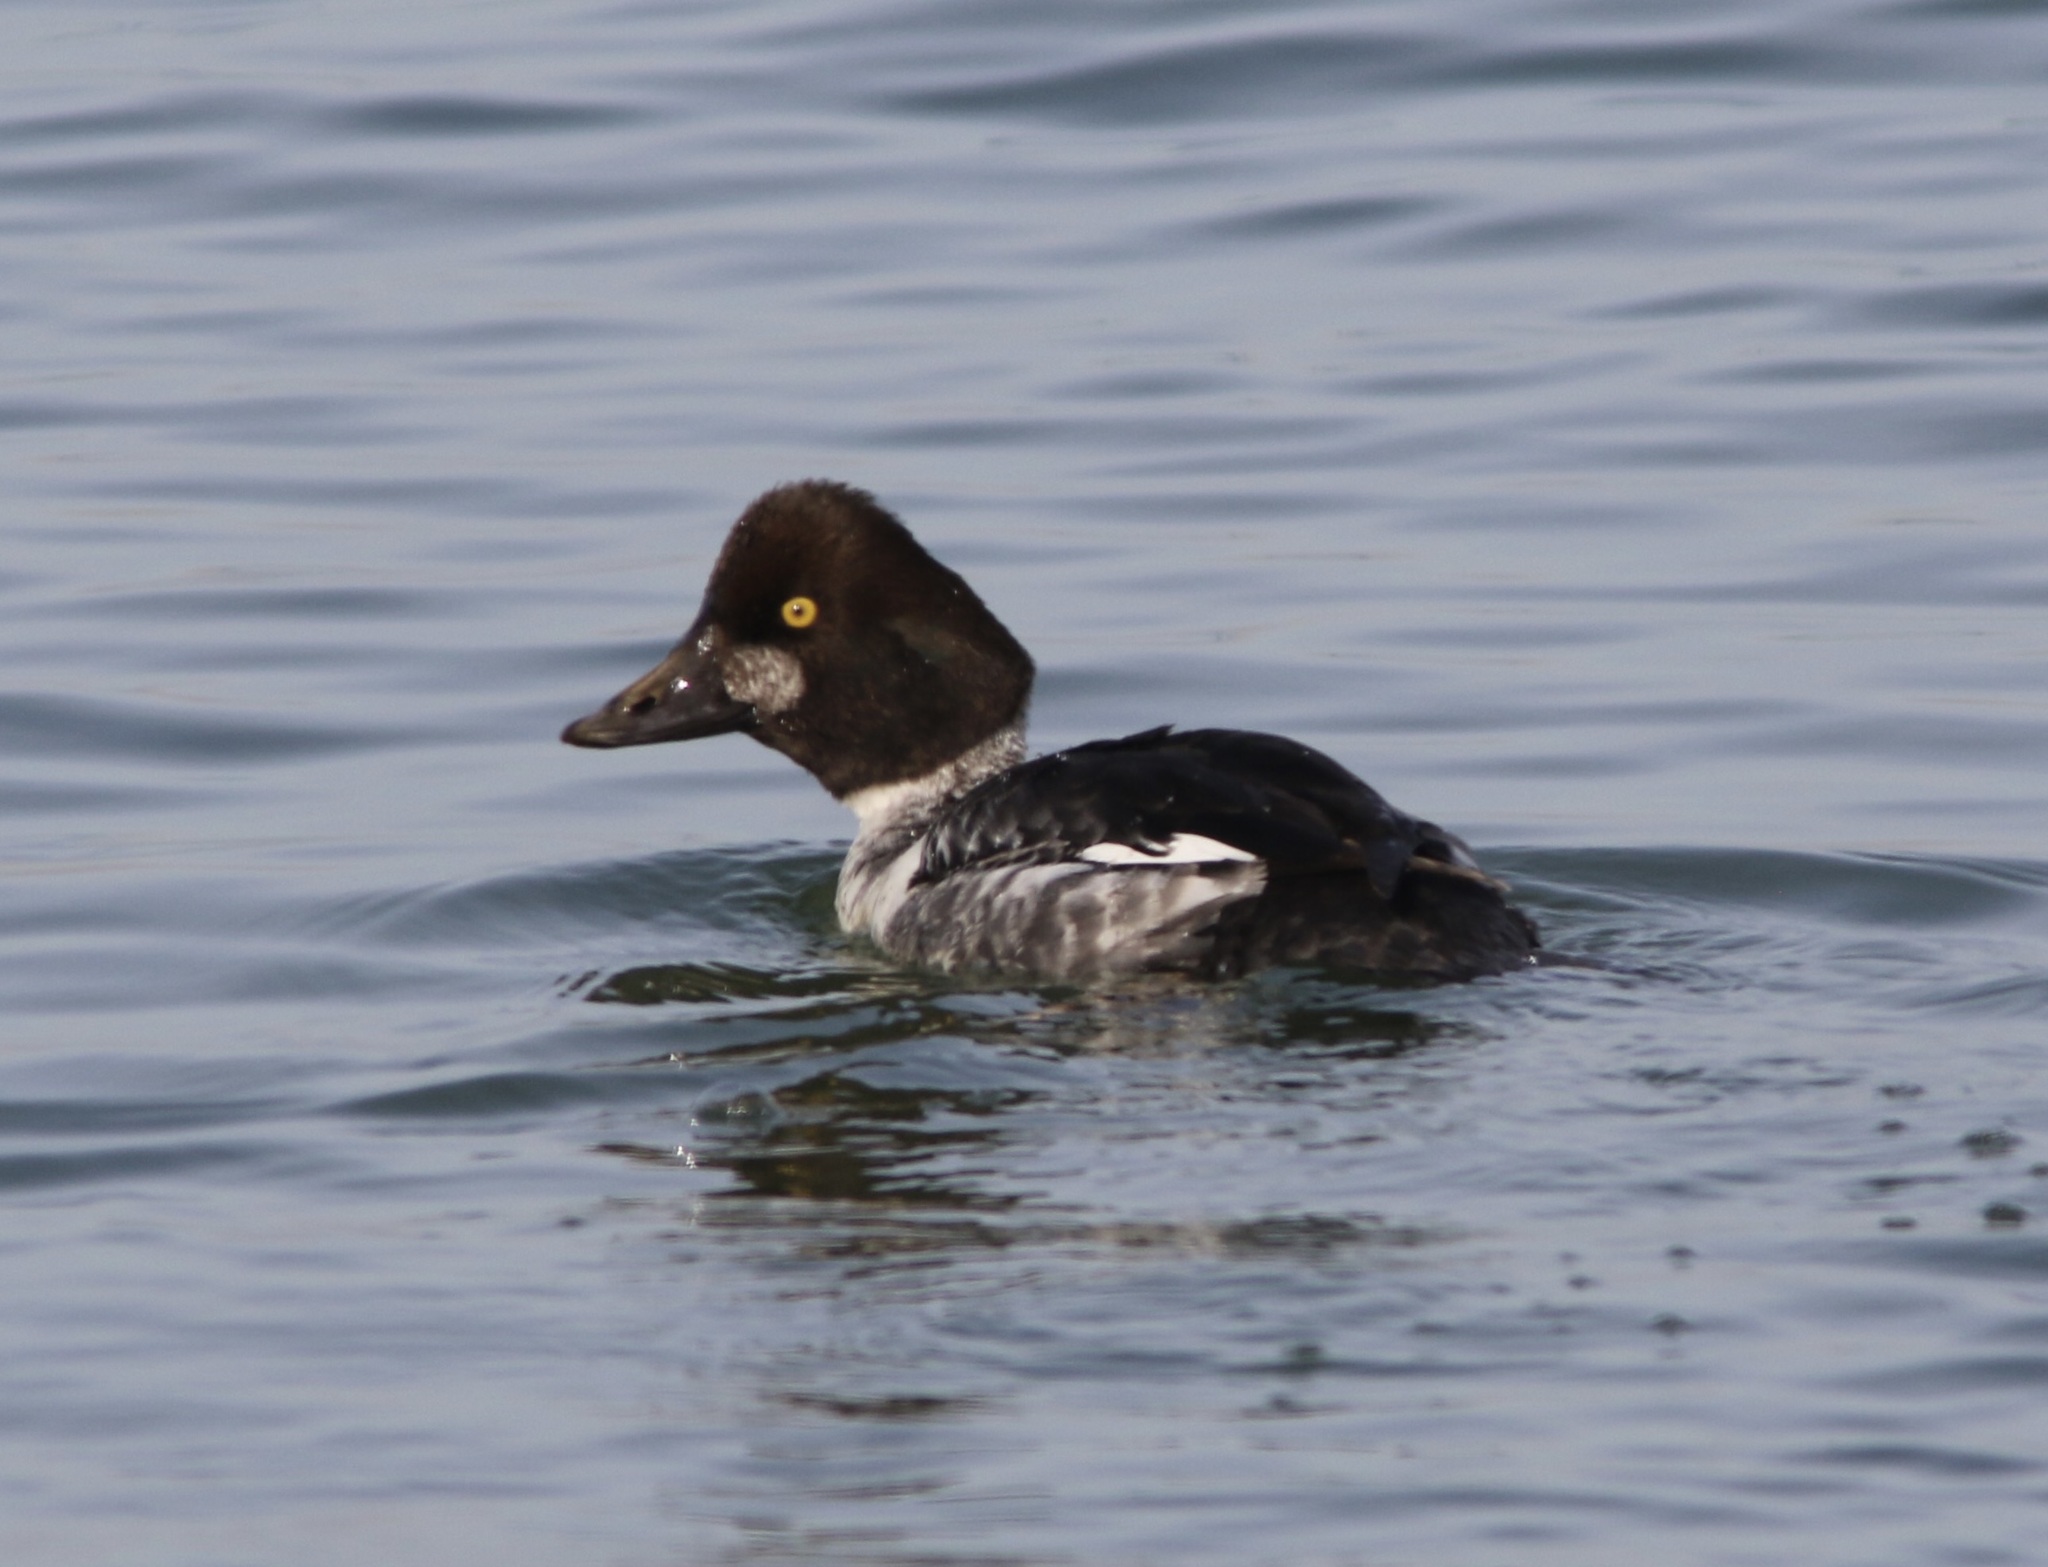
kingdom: Animalia
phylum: Chordata
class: Aves
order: Anseriformes
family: Anatidae
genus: Bucephala
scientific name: Bucephala clangula
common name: Common goldeneye
